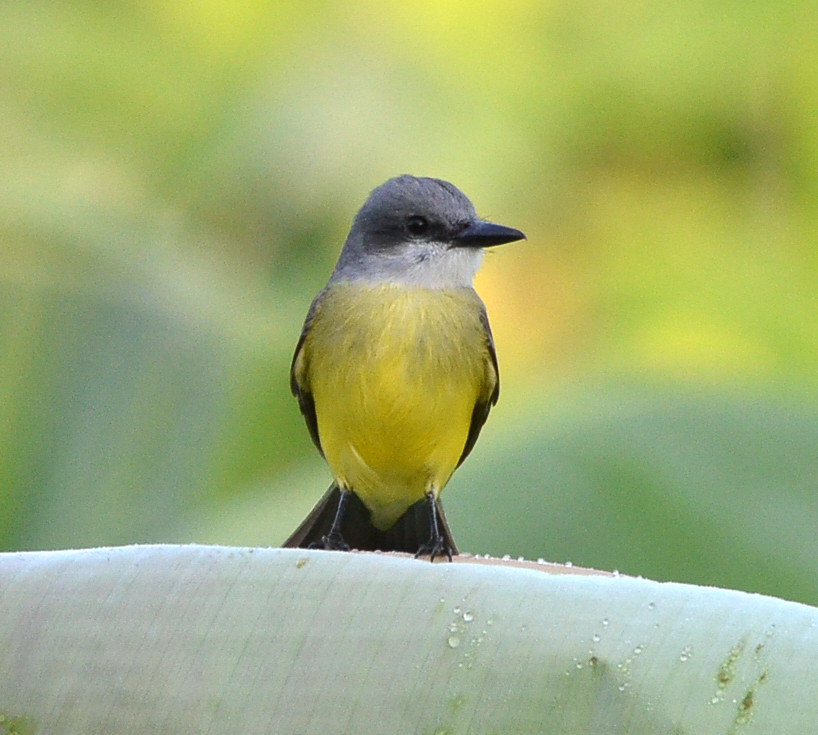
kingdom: Animalia
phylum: Chordata
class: Aves
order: Passeriformes
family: Tyrannidae
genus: Tyrannus
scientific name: Tyrannus melancholicus
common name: Tropical kingbird
